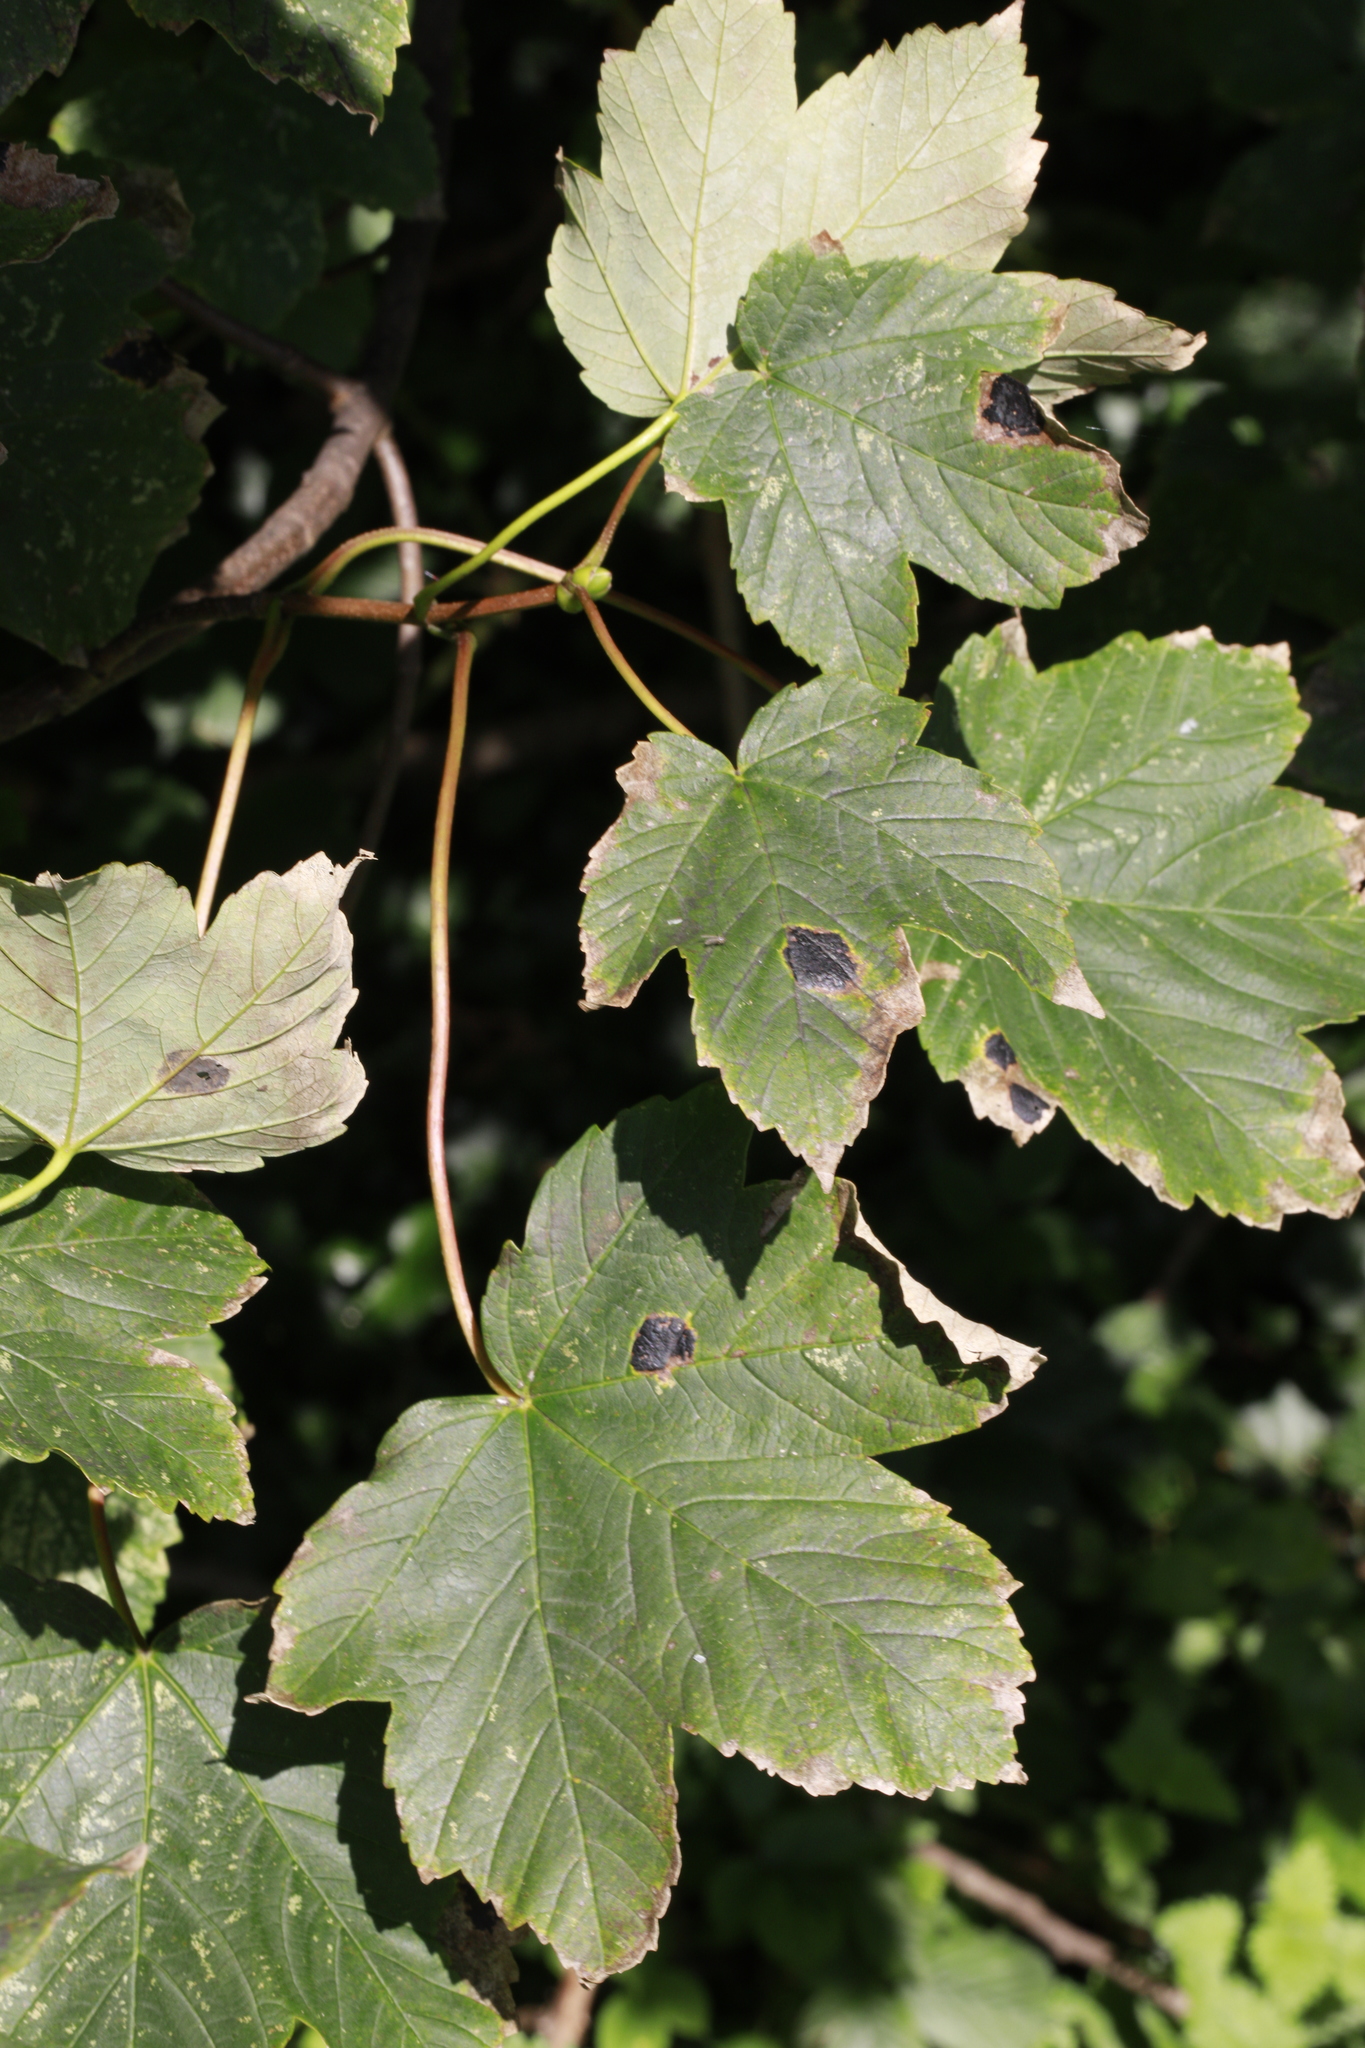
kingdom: Fungi
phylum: Ascomycota
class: Leotiomycetes
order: Rhytismatales
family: Rhytismataceae
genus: Rhytisma
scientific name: Rhytisma acerinum
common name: European tar spot
